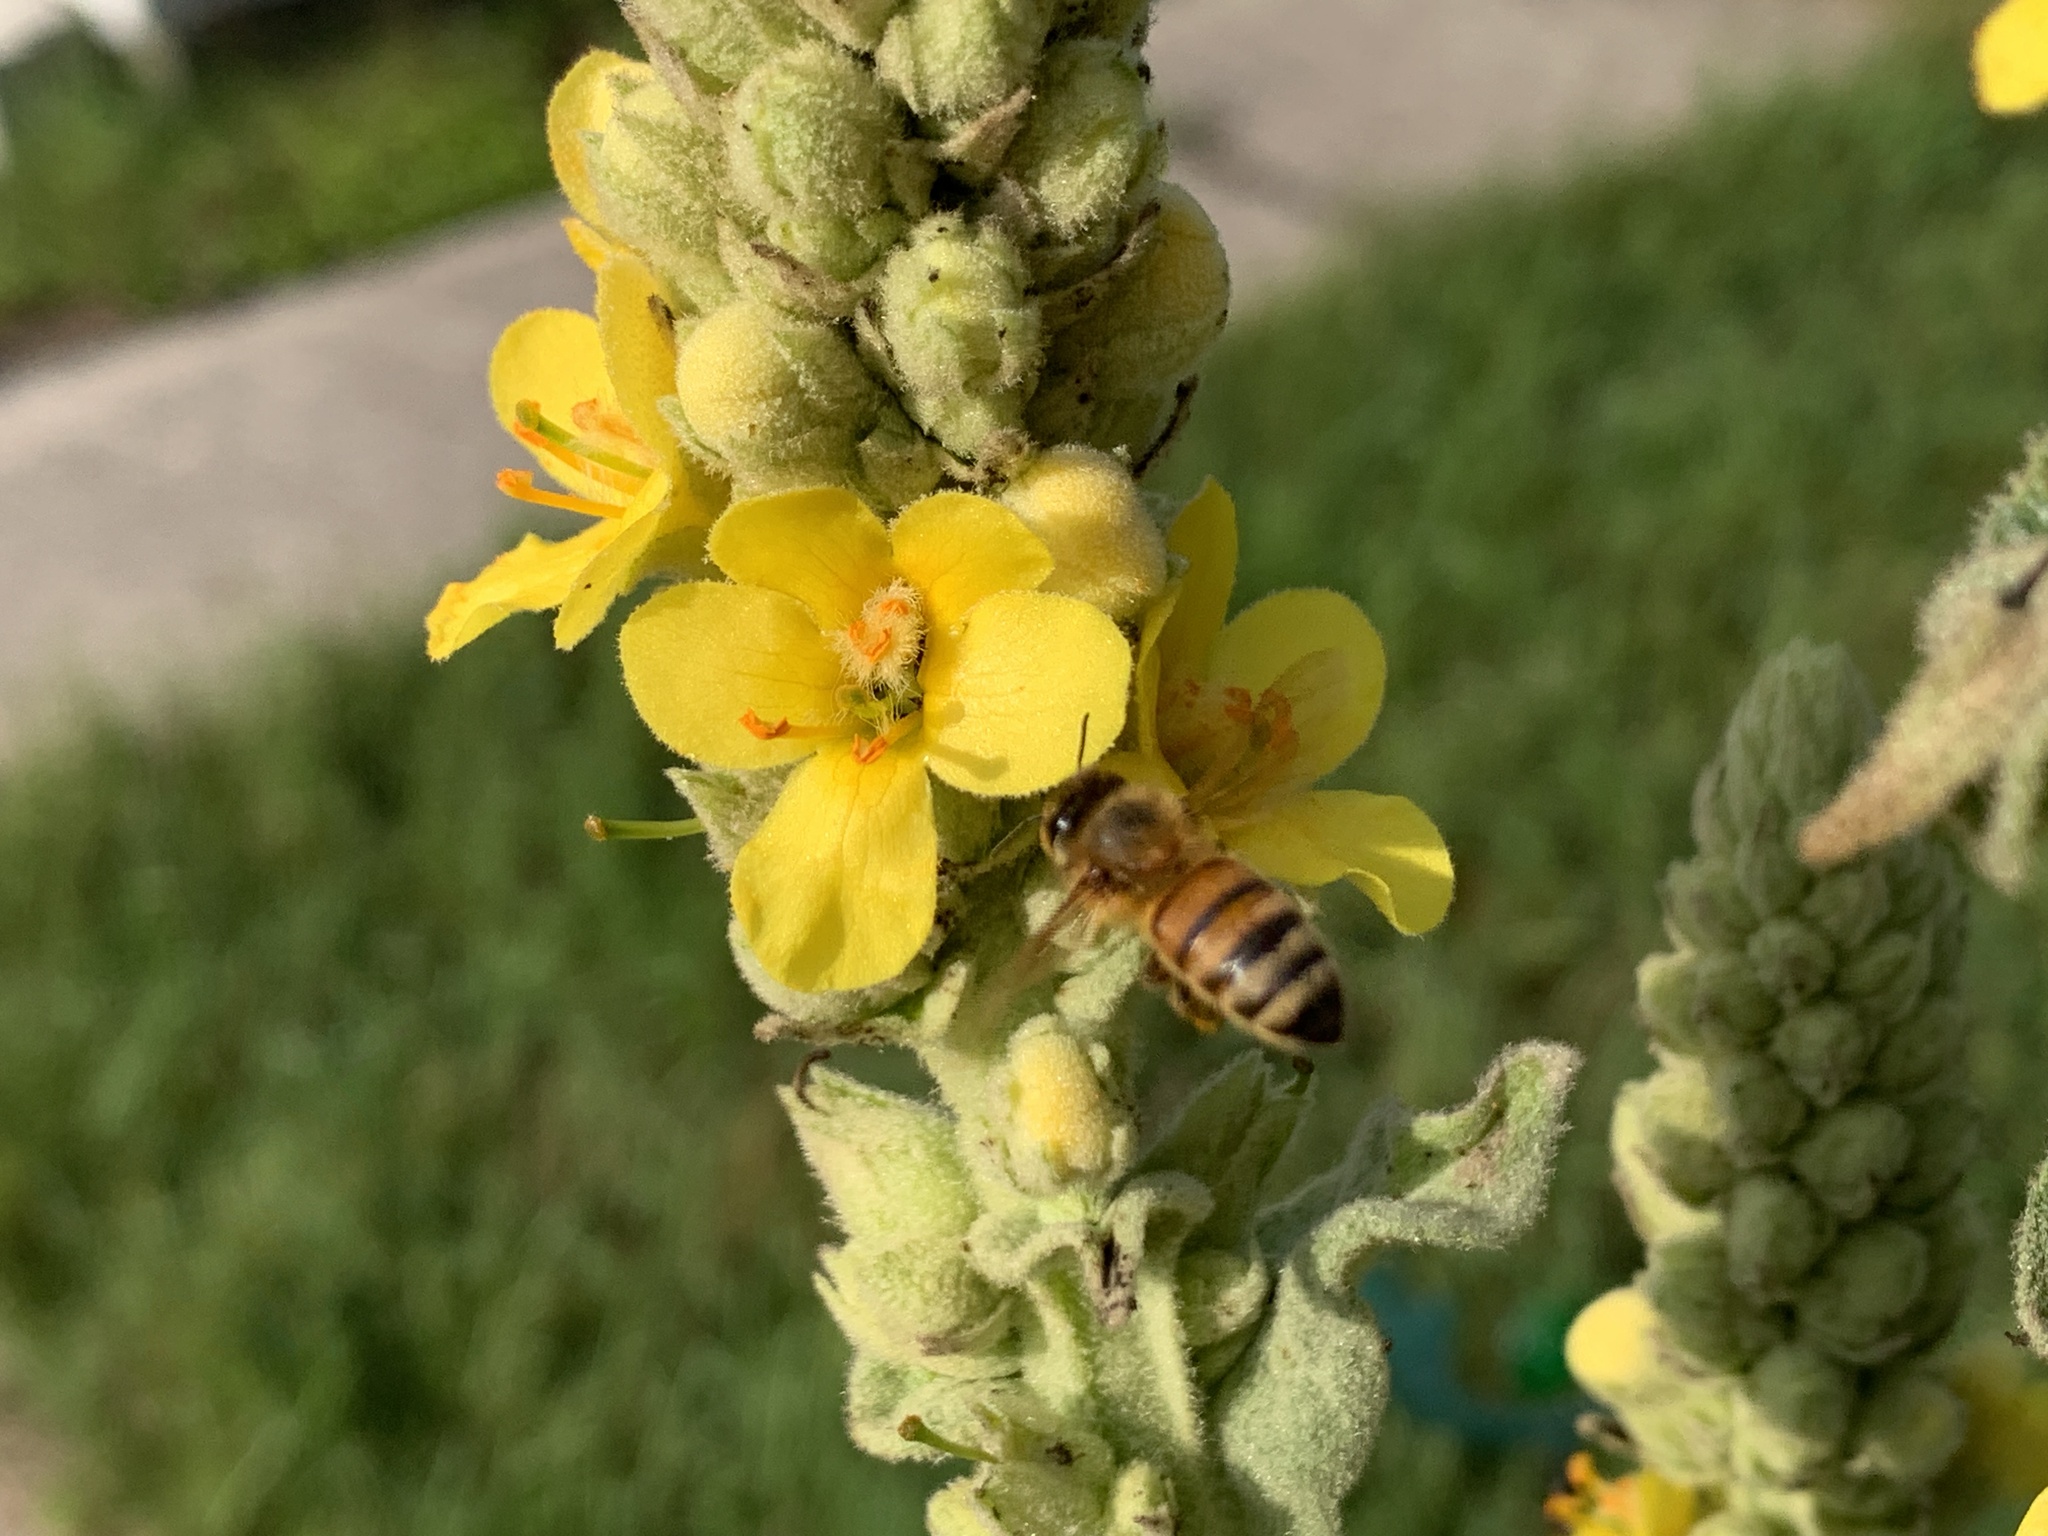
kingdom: Animalia
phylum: Arthropoda
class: Insecta
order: Hymenoptera
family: Apidae
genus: Apis
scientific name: Apis mellifera
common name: Honey bee
